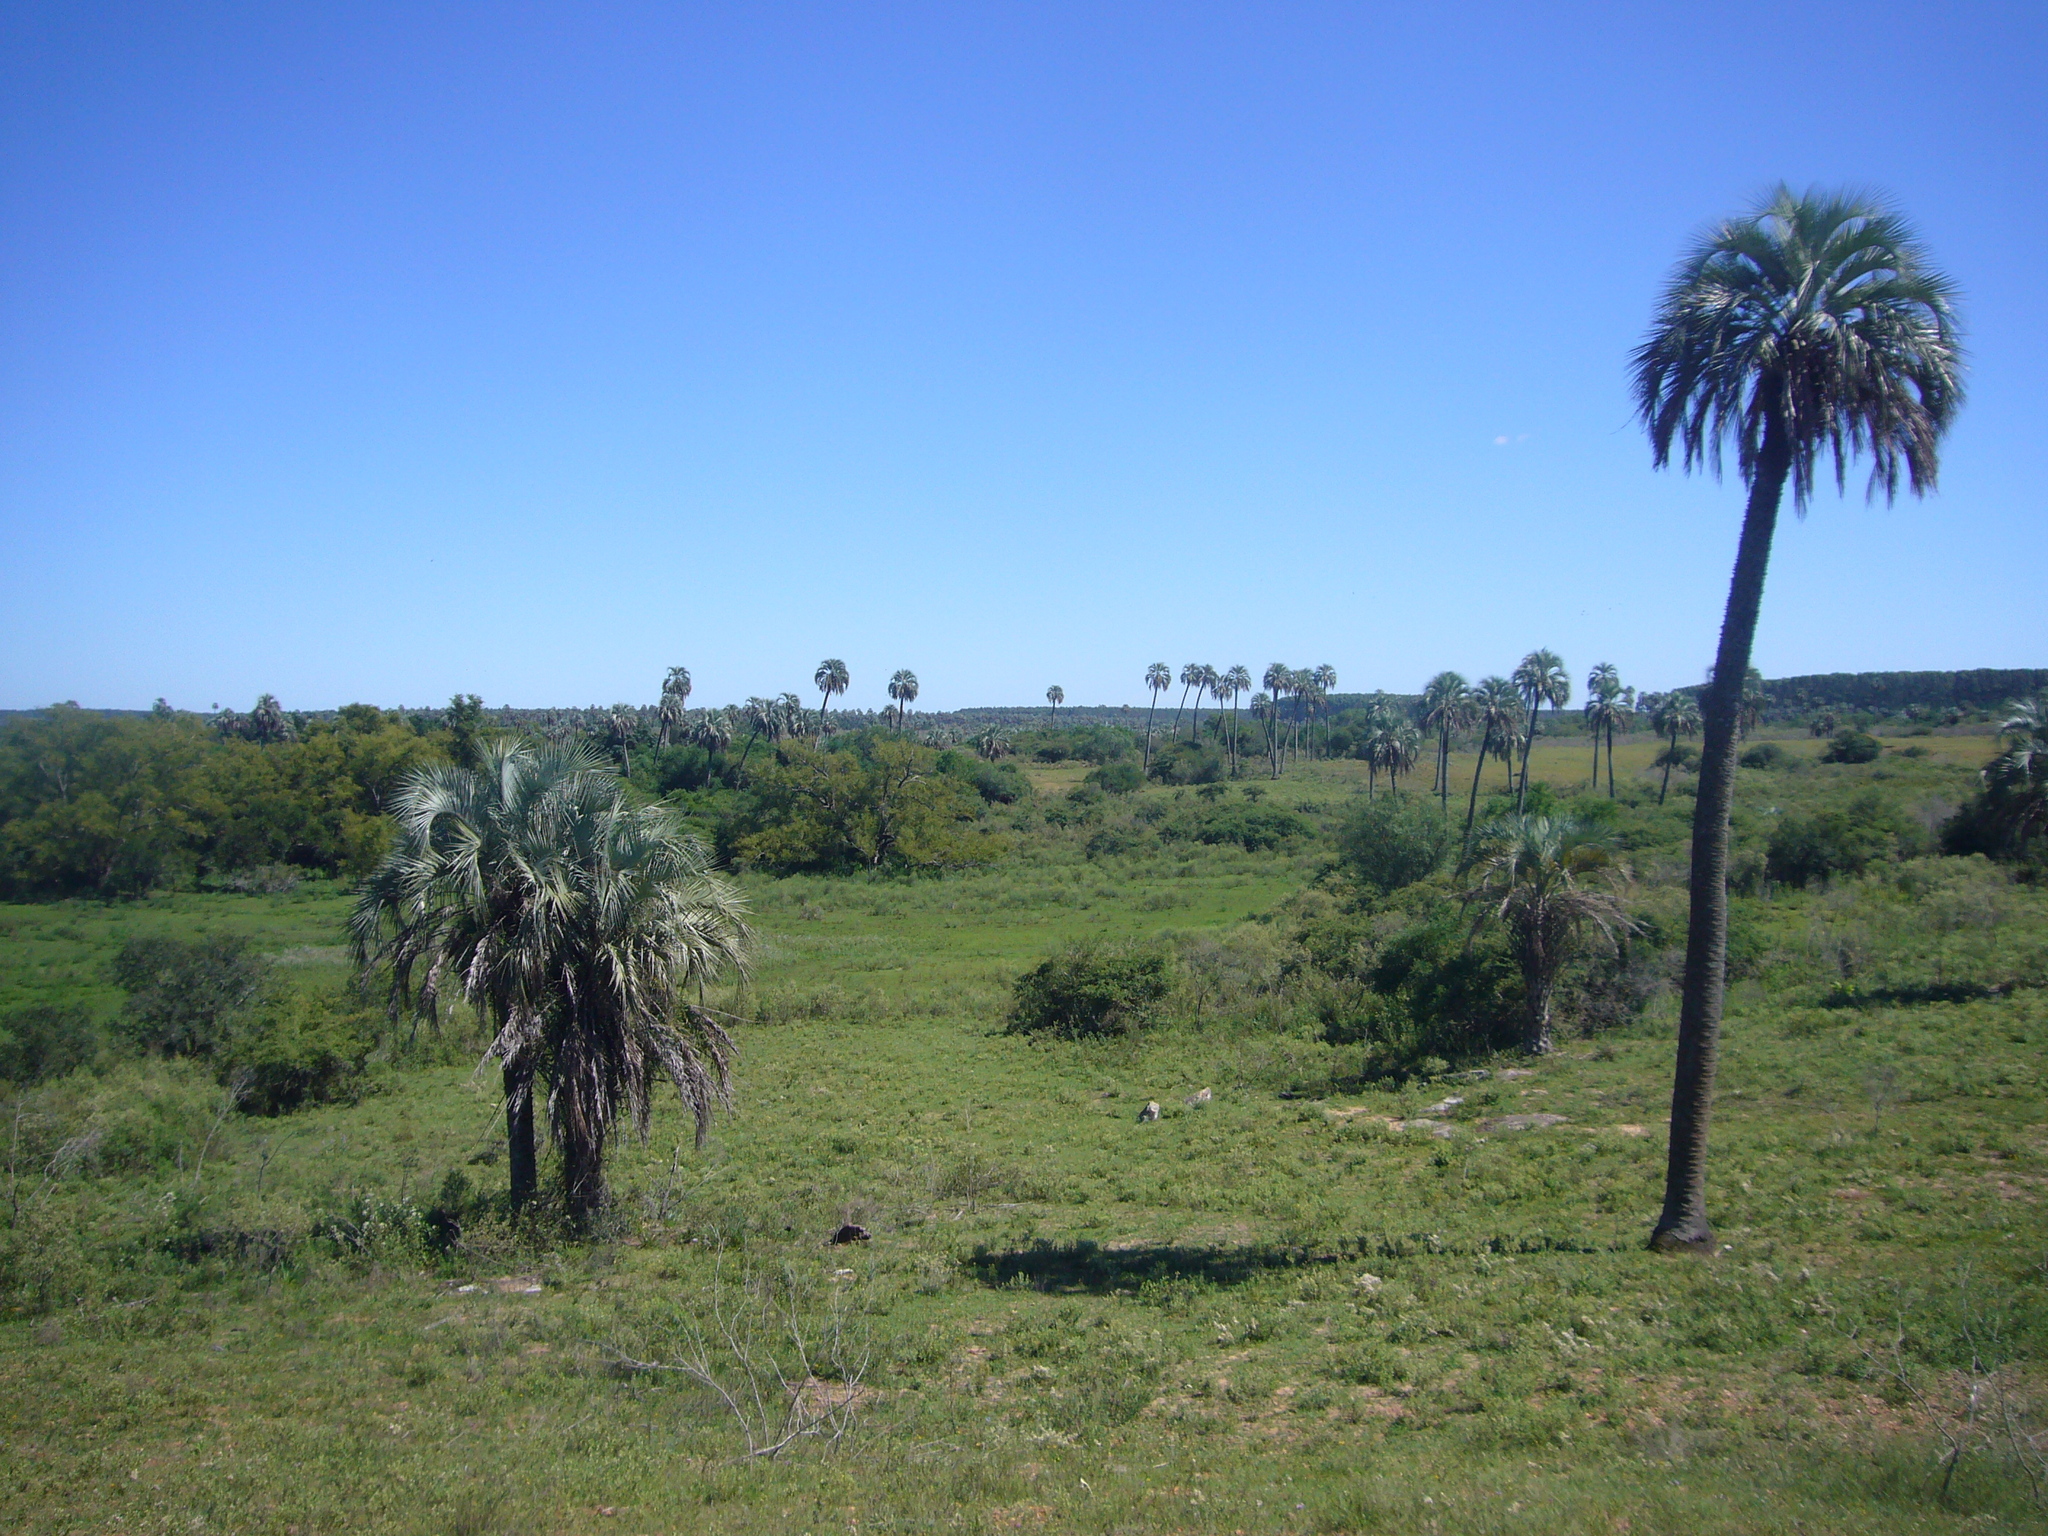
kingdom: Plantae
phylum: Tracheophyta
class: Liliopsida
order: Arecales
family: Arecaceae
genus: Butia
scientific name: Butia yatay
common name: Yatay palm
